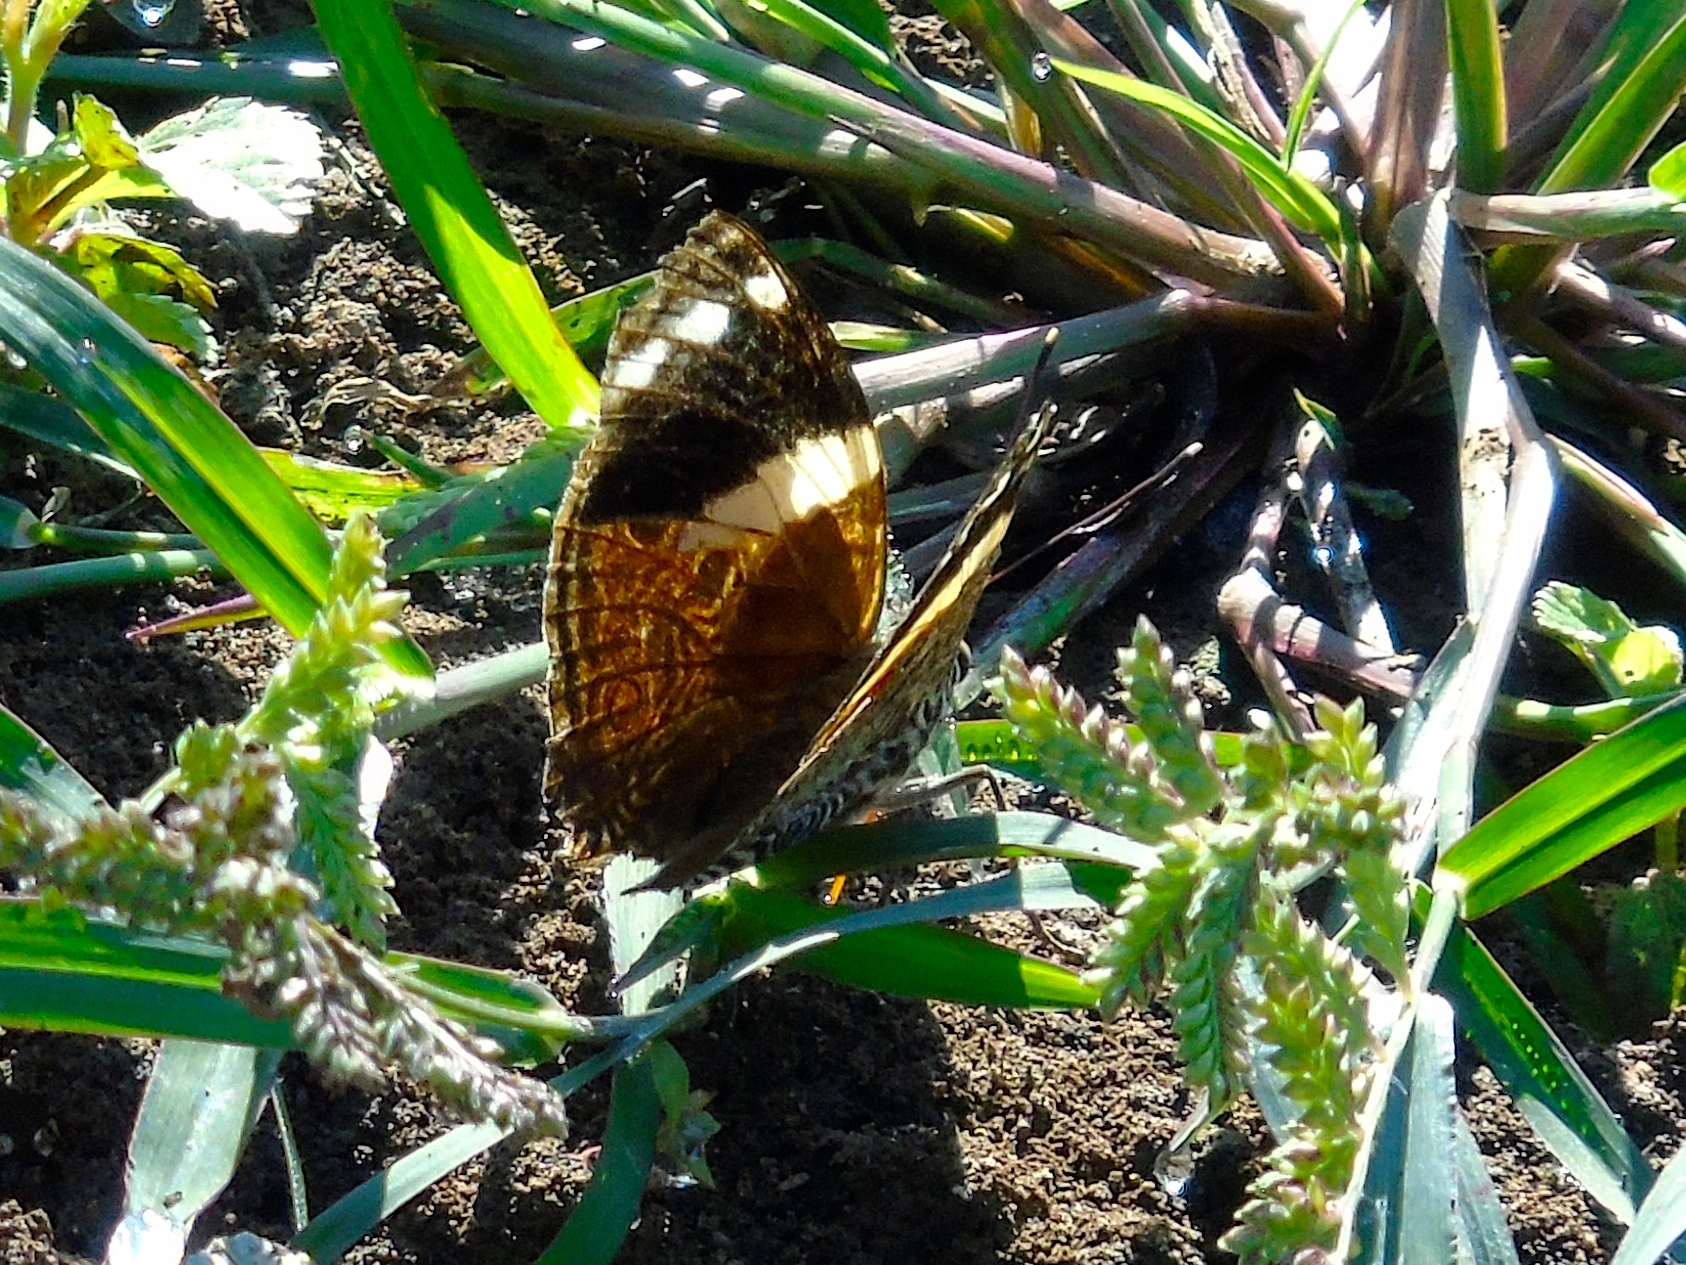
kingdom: Animalia
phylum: Arthropoda
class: Insecta
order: Lepidoptera
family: Nymphalidae
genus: Smyrna
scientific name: Smyrna blomfildia
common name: Blomfild's beauty
